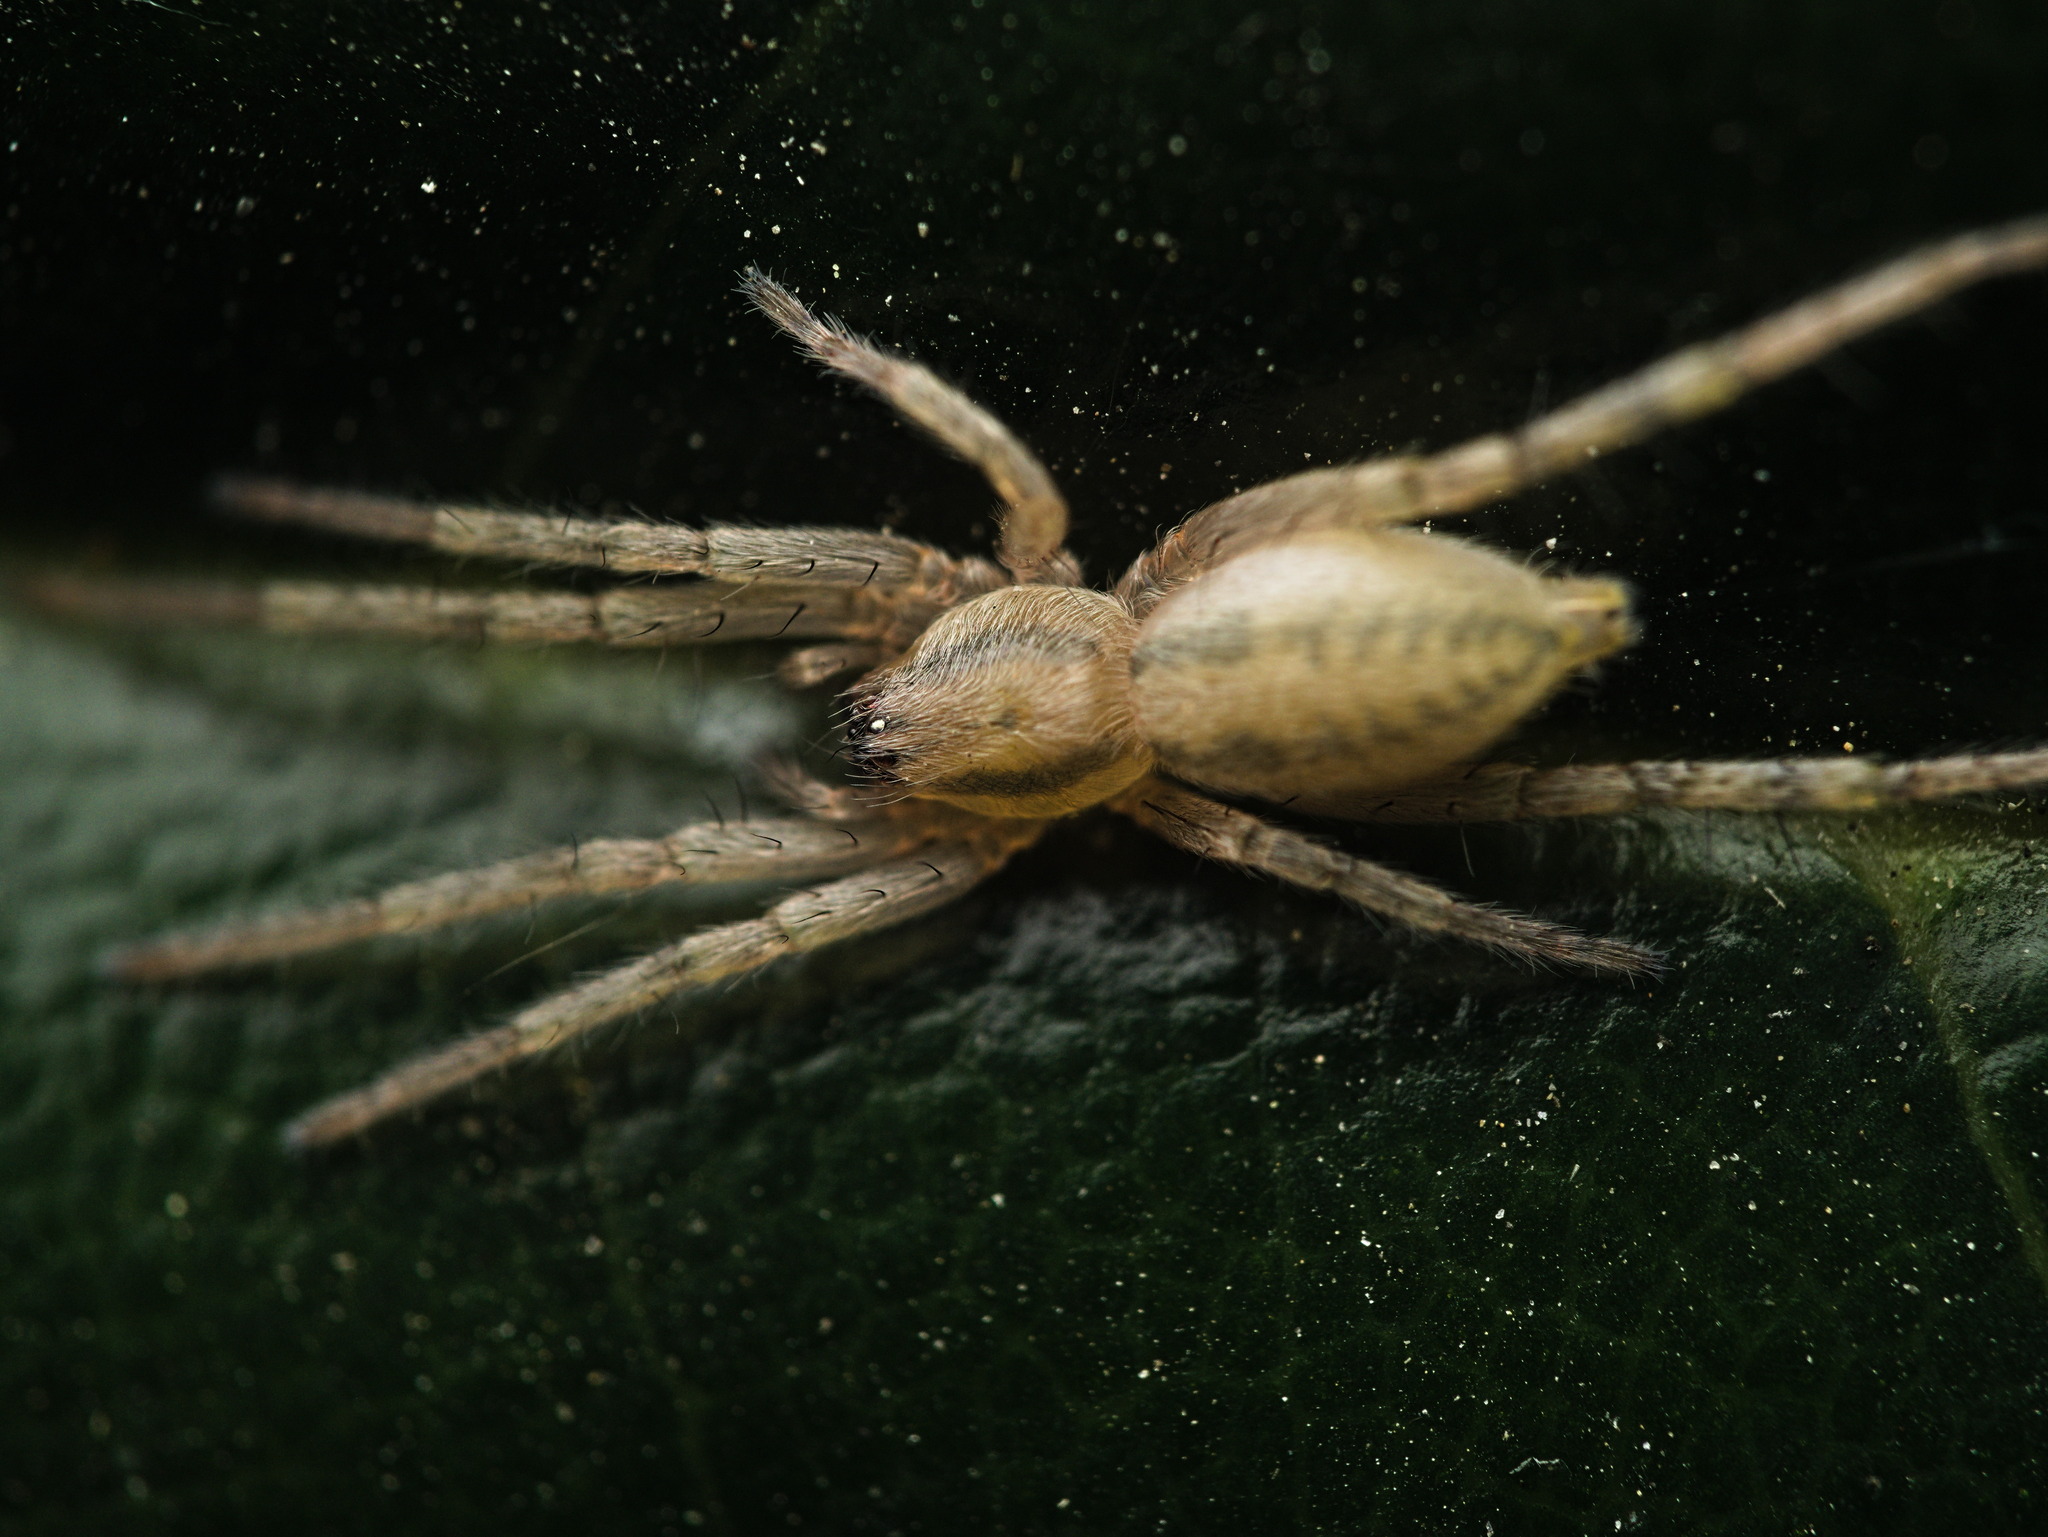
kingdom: Animalia
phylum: Arthropoda
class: Arachnida
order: Araneae
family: Anyphaenidae
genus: Hibana
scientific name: Hibana gracilis
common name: Garden ghost spider
